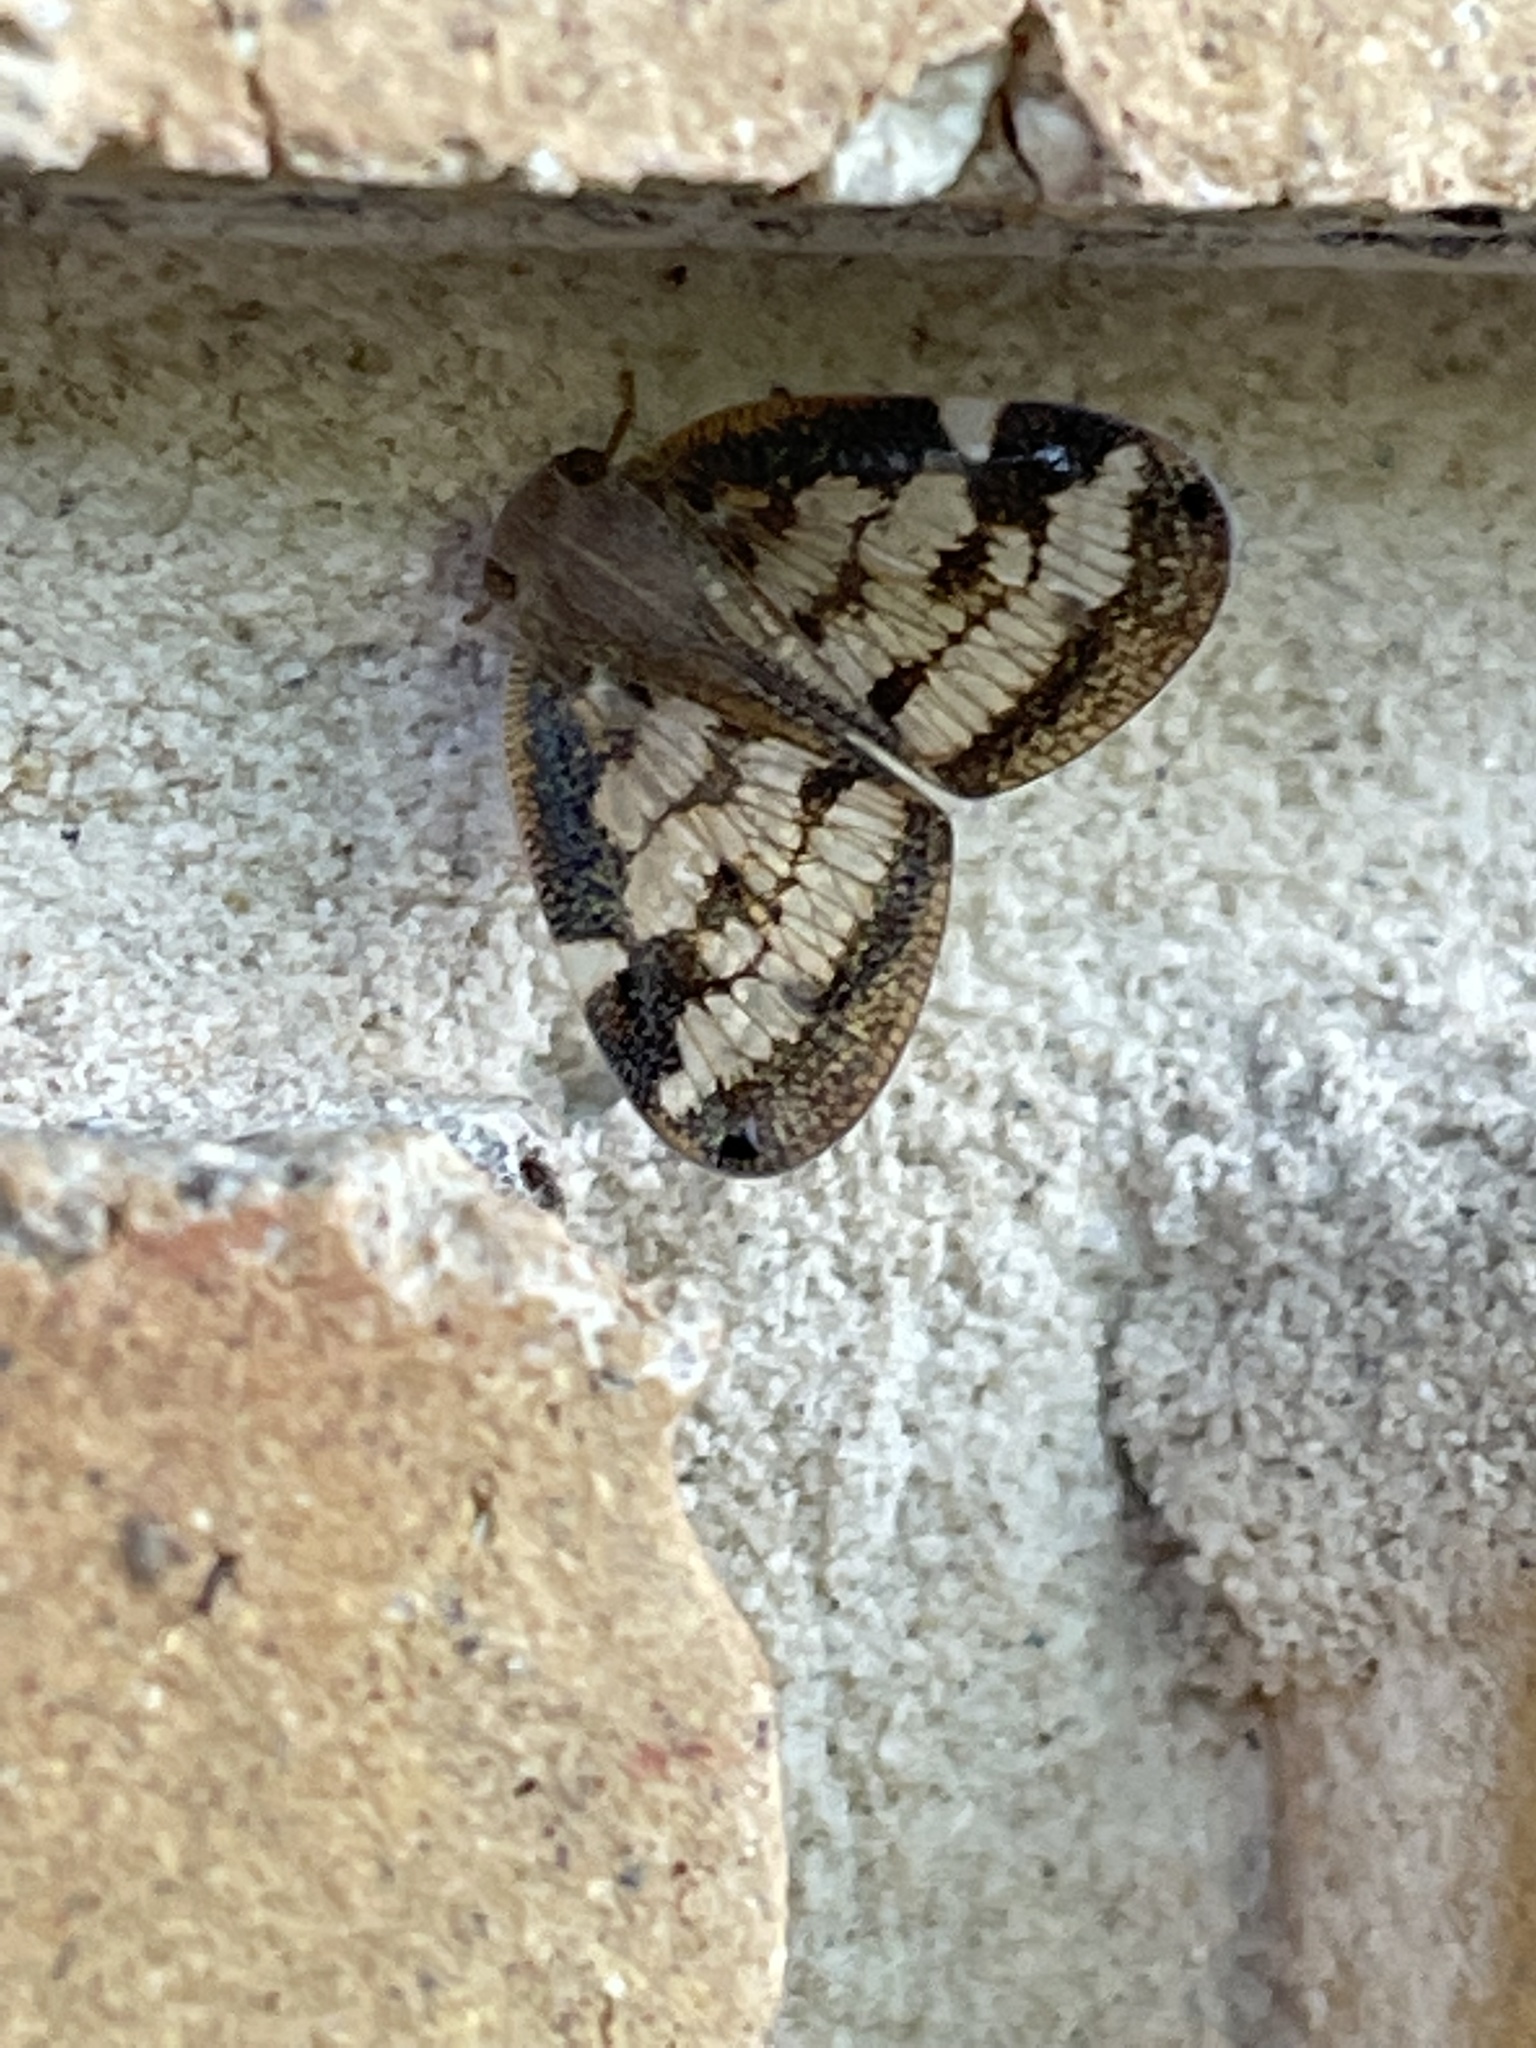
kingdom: Animalia
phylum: Arthropoda
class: Insecta
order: Hemiptera
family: Ricaniidae
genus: Scolypopa
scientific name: Scolypopa australis
